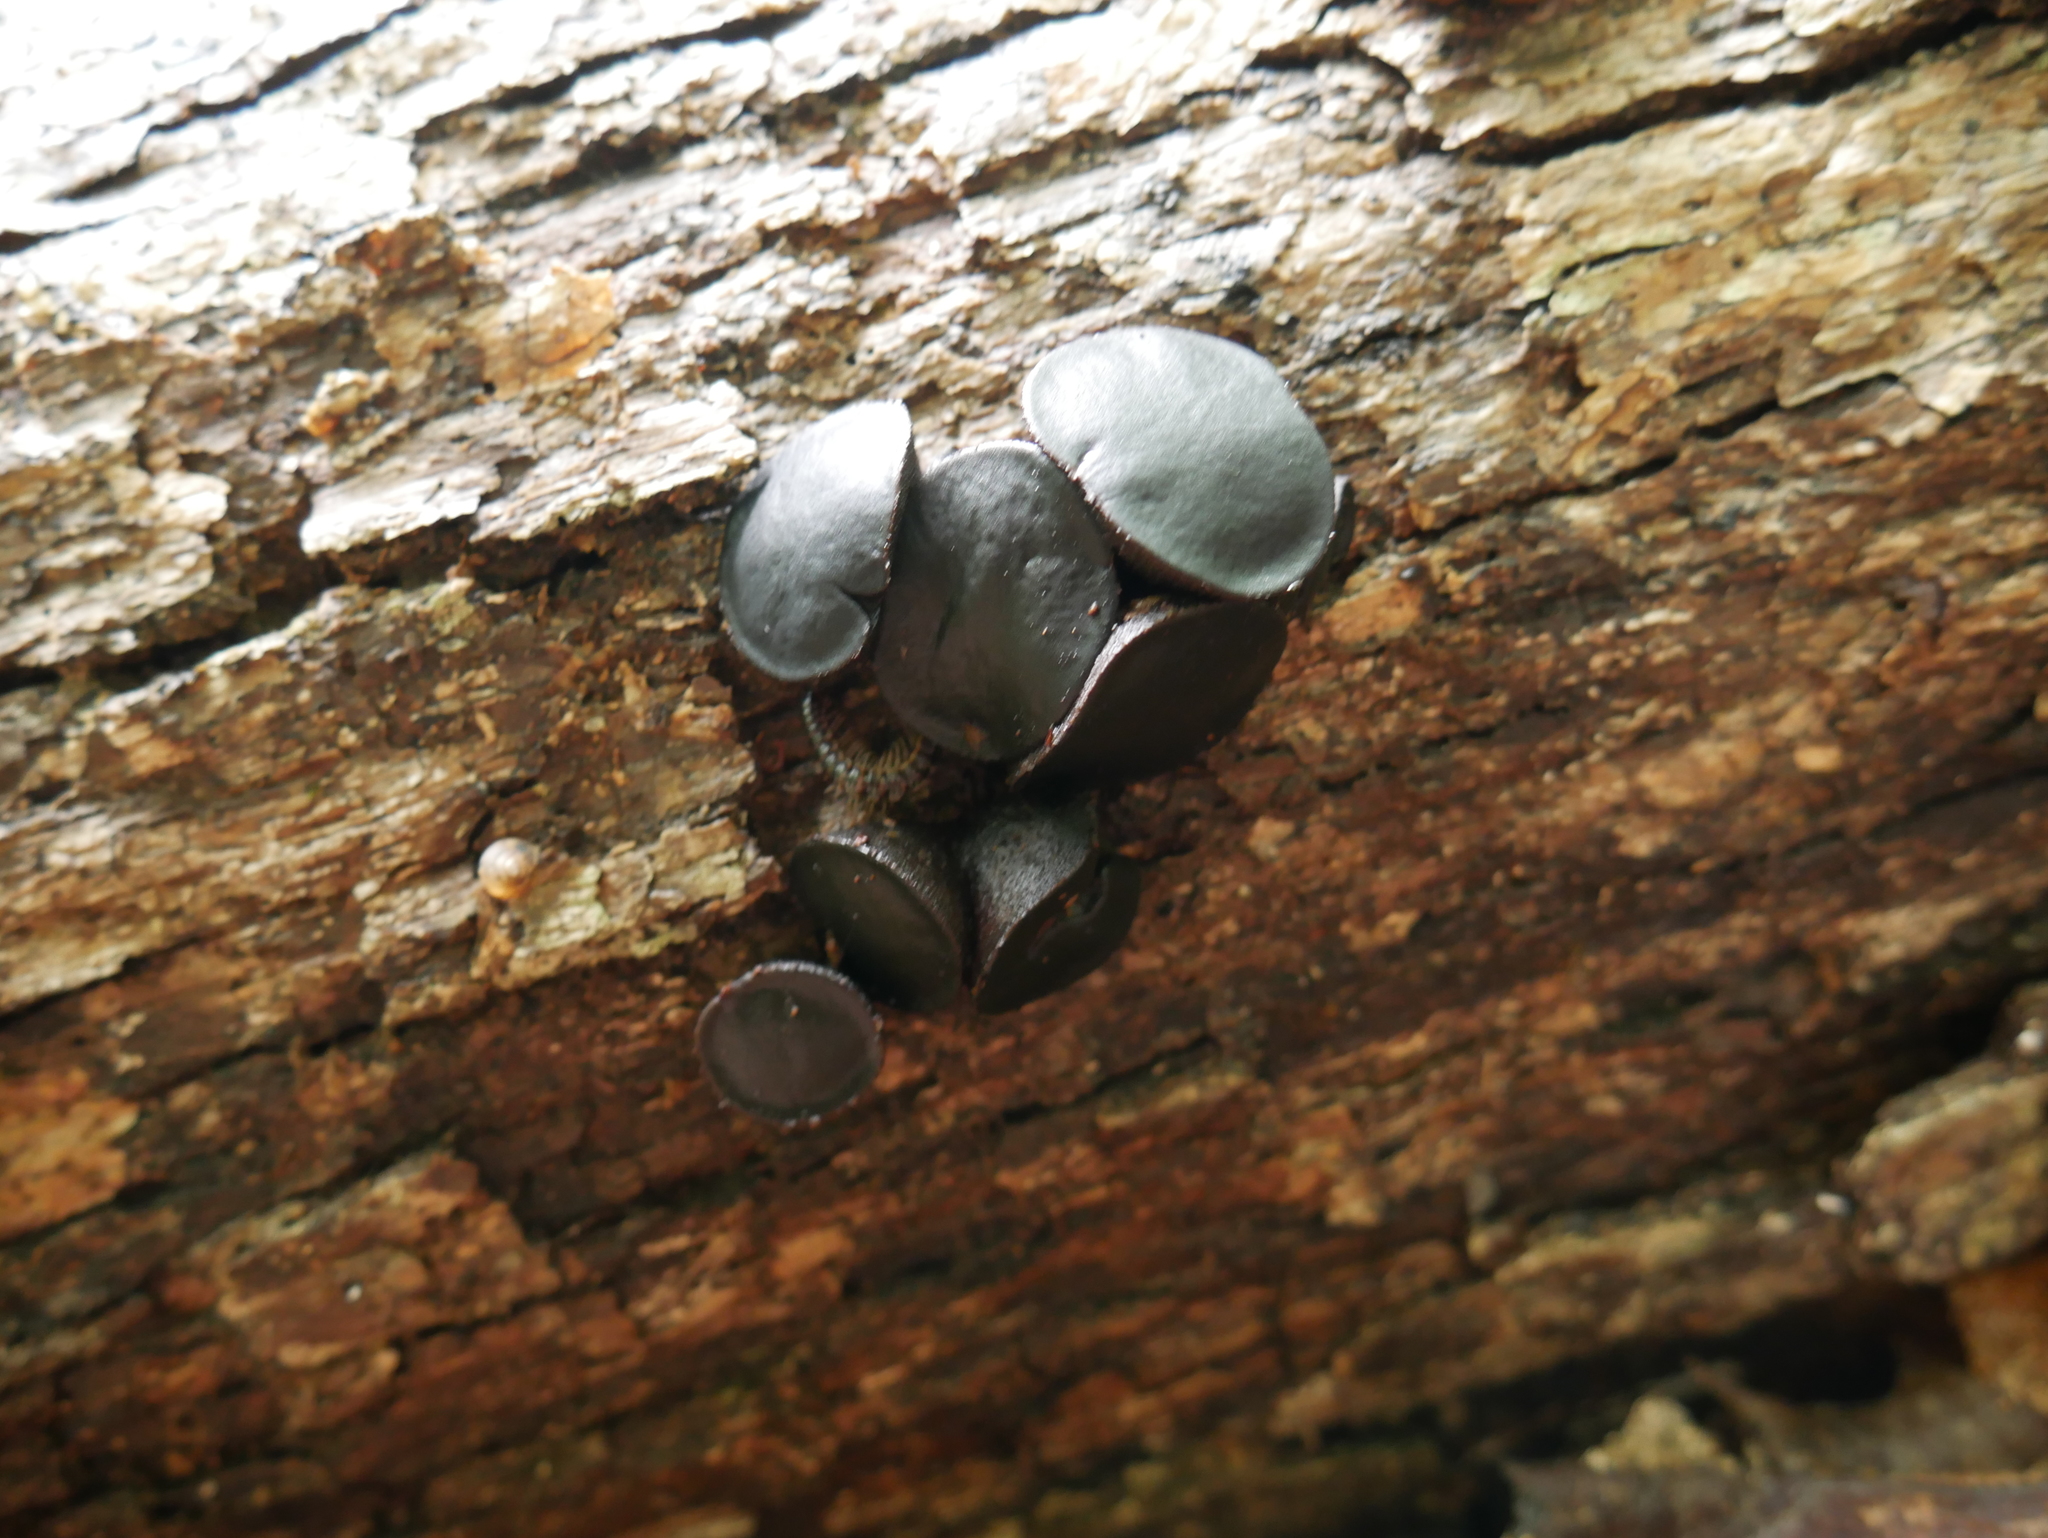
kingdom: Fungi
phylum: Ascomycota
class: Leotiomycetes
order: Phacidiales
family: Phacidiaceae
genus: Bulgaria
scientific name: Bulgaria inquinans
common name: Black bulgar
